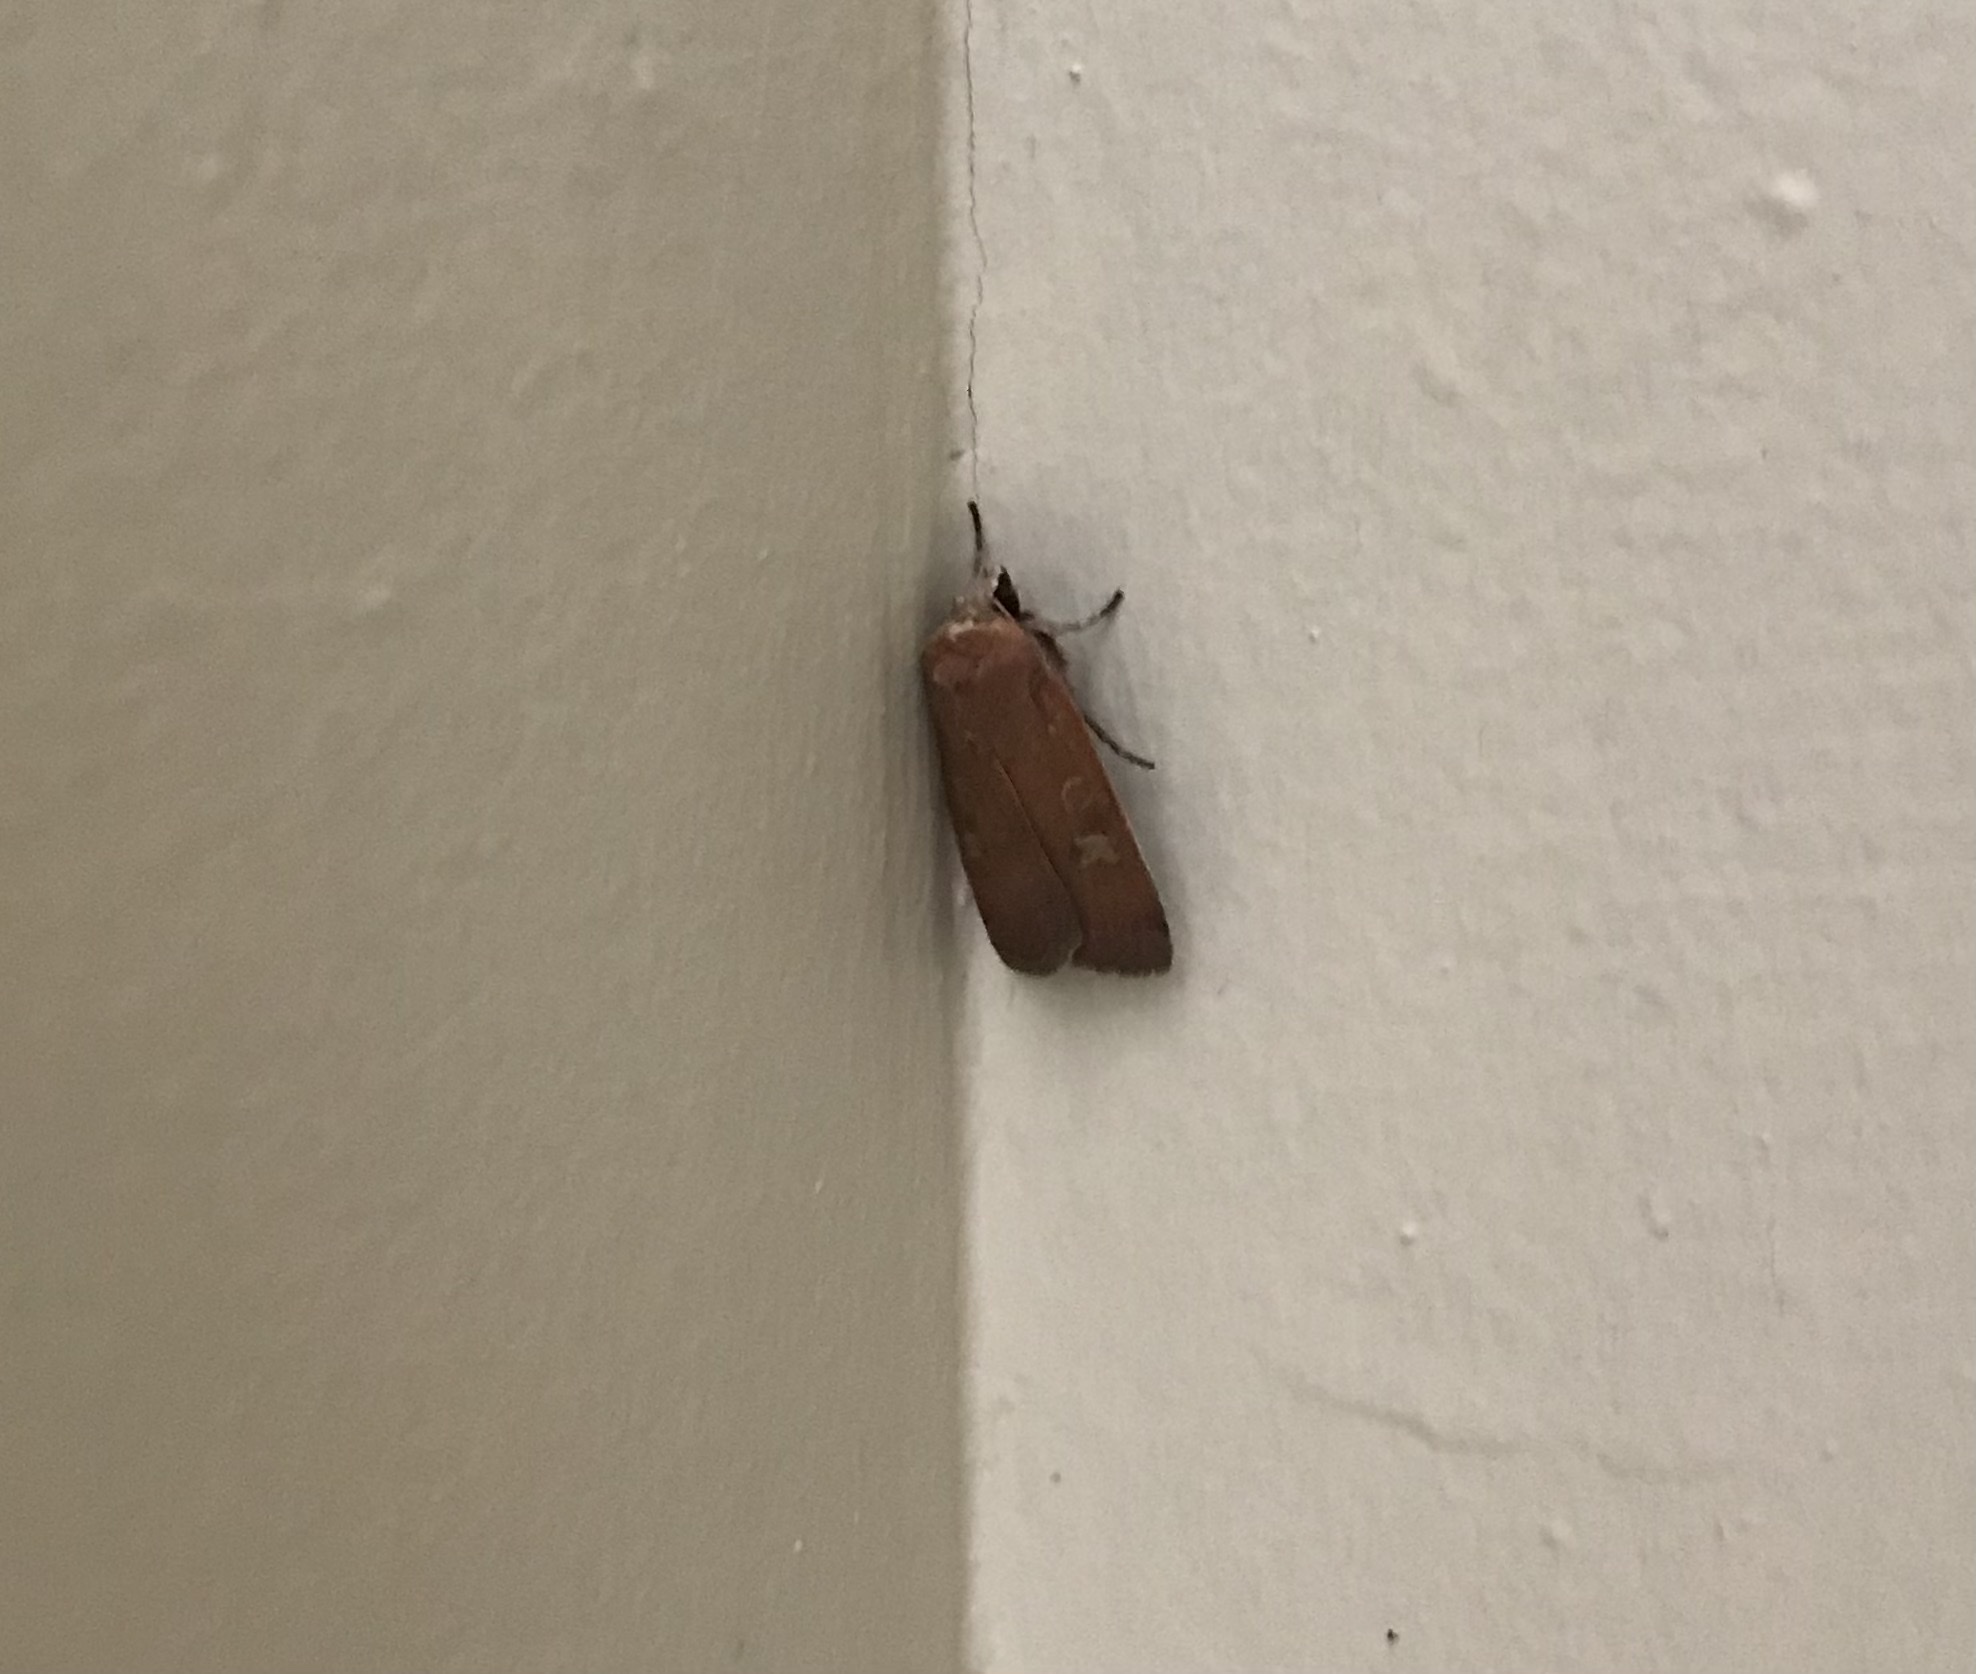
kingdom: Animalia
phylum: Arthropoda
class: Insecta
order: Lepidoptera
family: Noctuidae
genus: Xestia
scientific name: Xestia xanthographa
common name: Square-spot rustic
